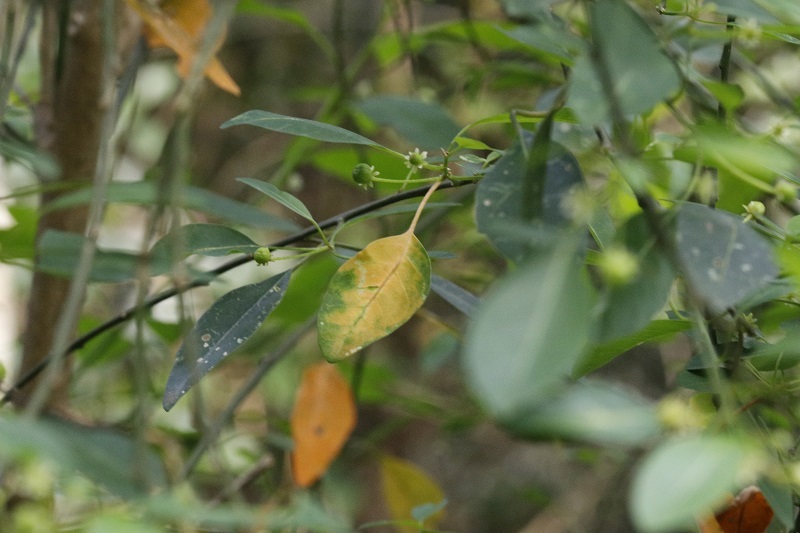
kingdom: Plantae
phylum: Tracheophyta
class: Magnoliopsida
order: Malpighiales
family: Peraceae
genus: Clutia
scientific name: Clutia pulchella
